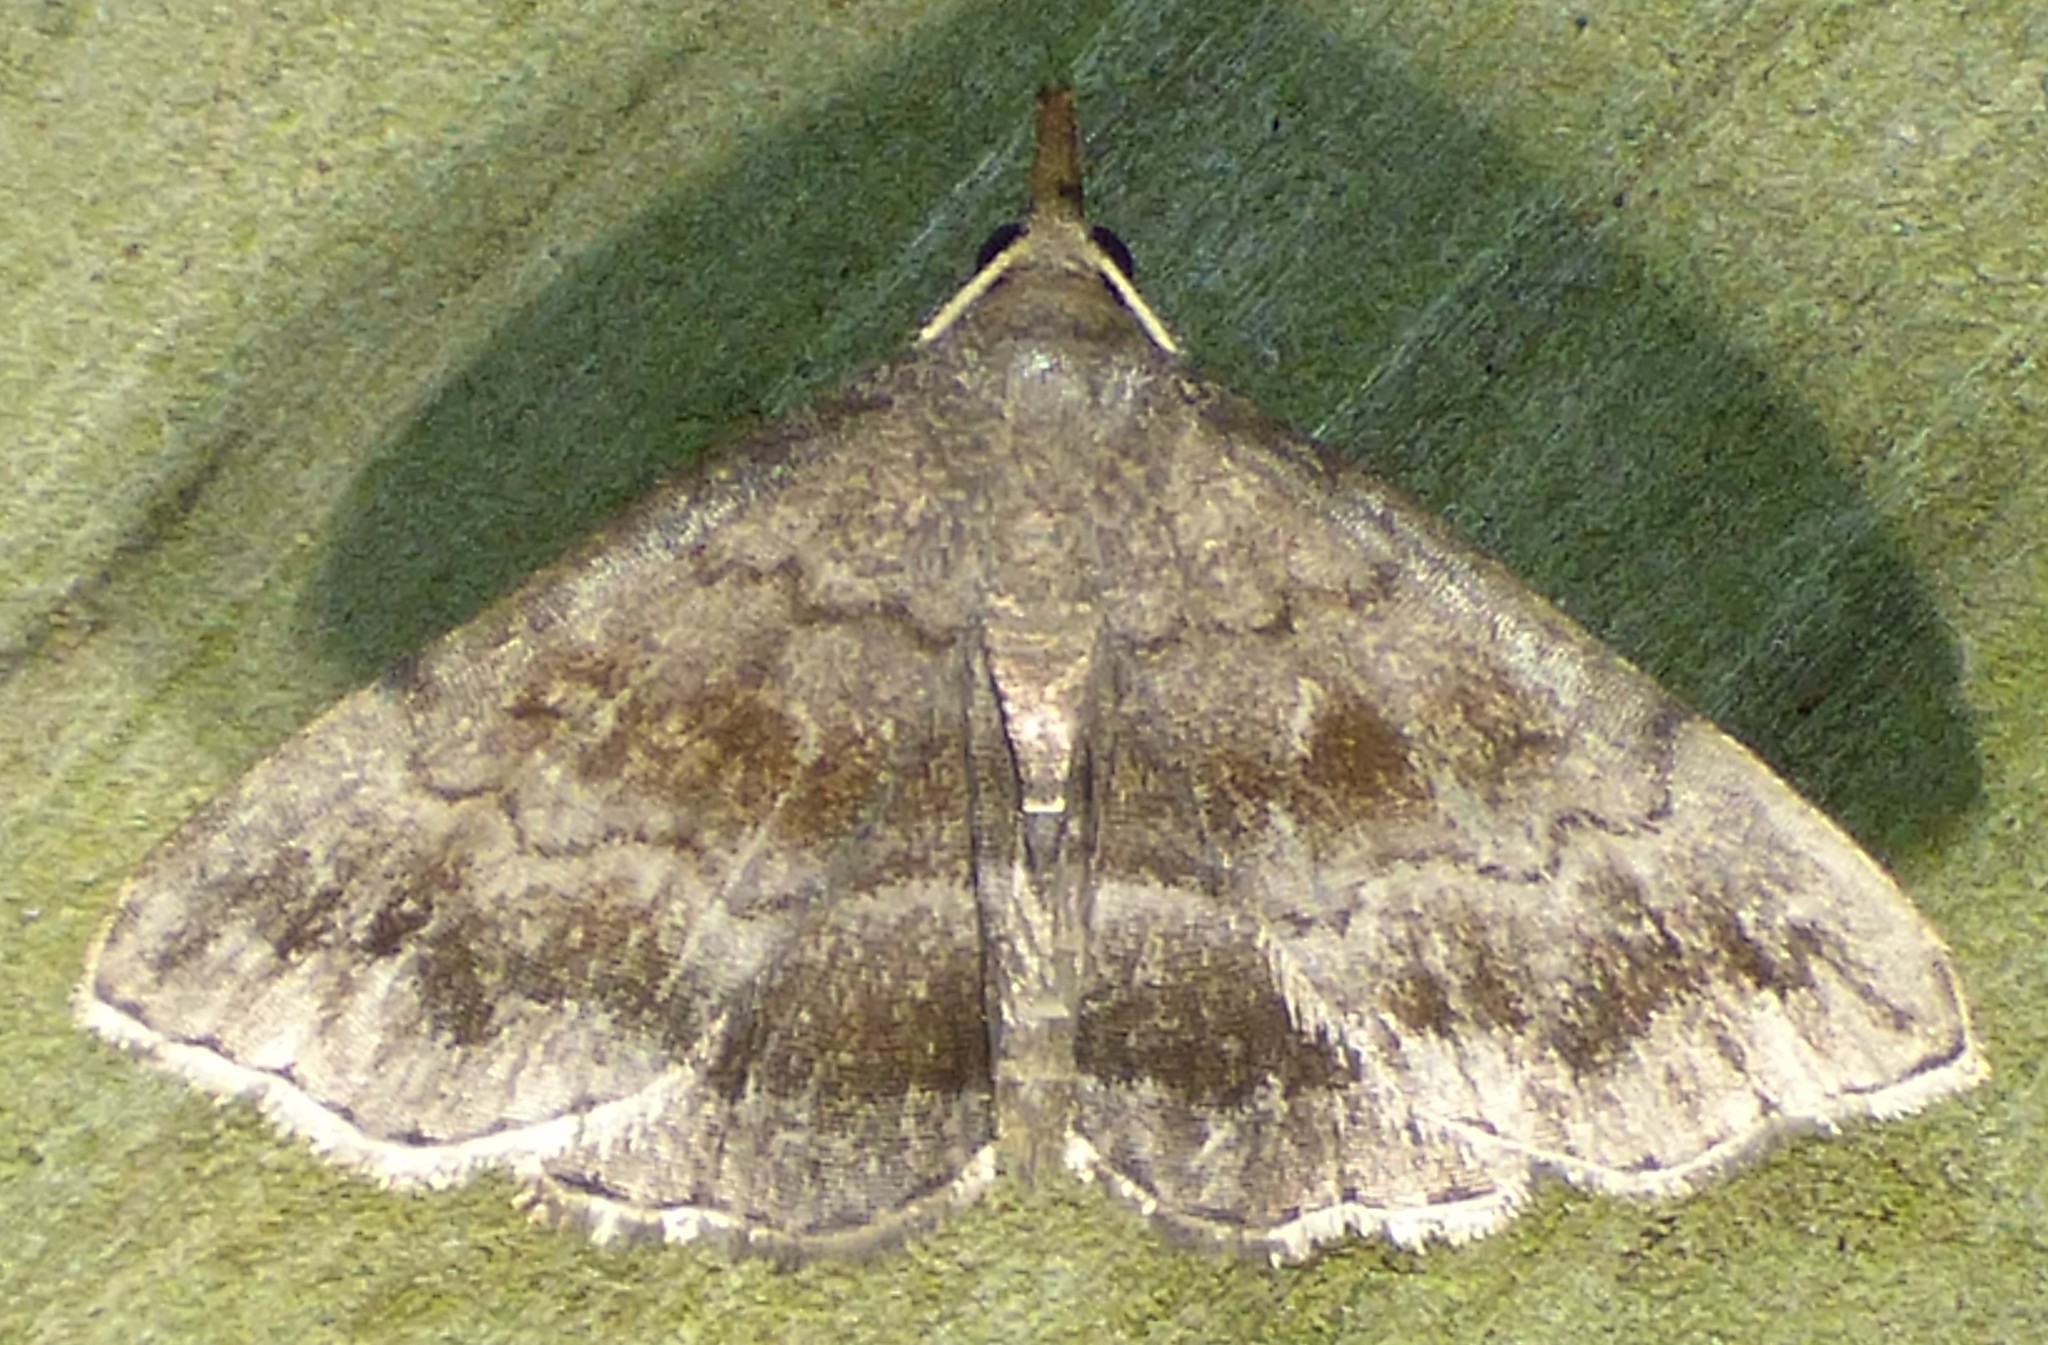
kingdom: Animalia
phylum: Arthropoda
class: Insecta
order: Lepidoptera
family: Erebidae
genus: Phalaenostola
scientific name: Phalaenostola larentioides
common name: Black-banded owlet
